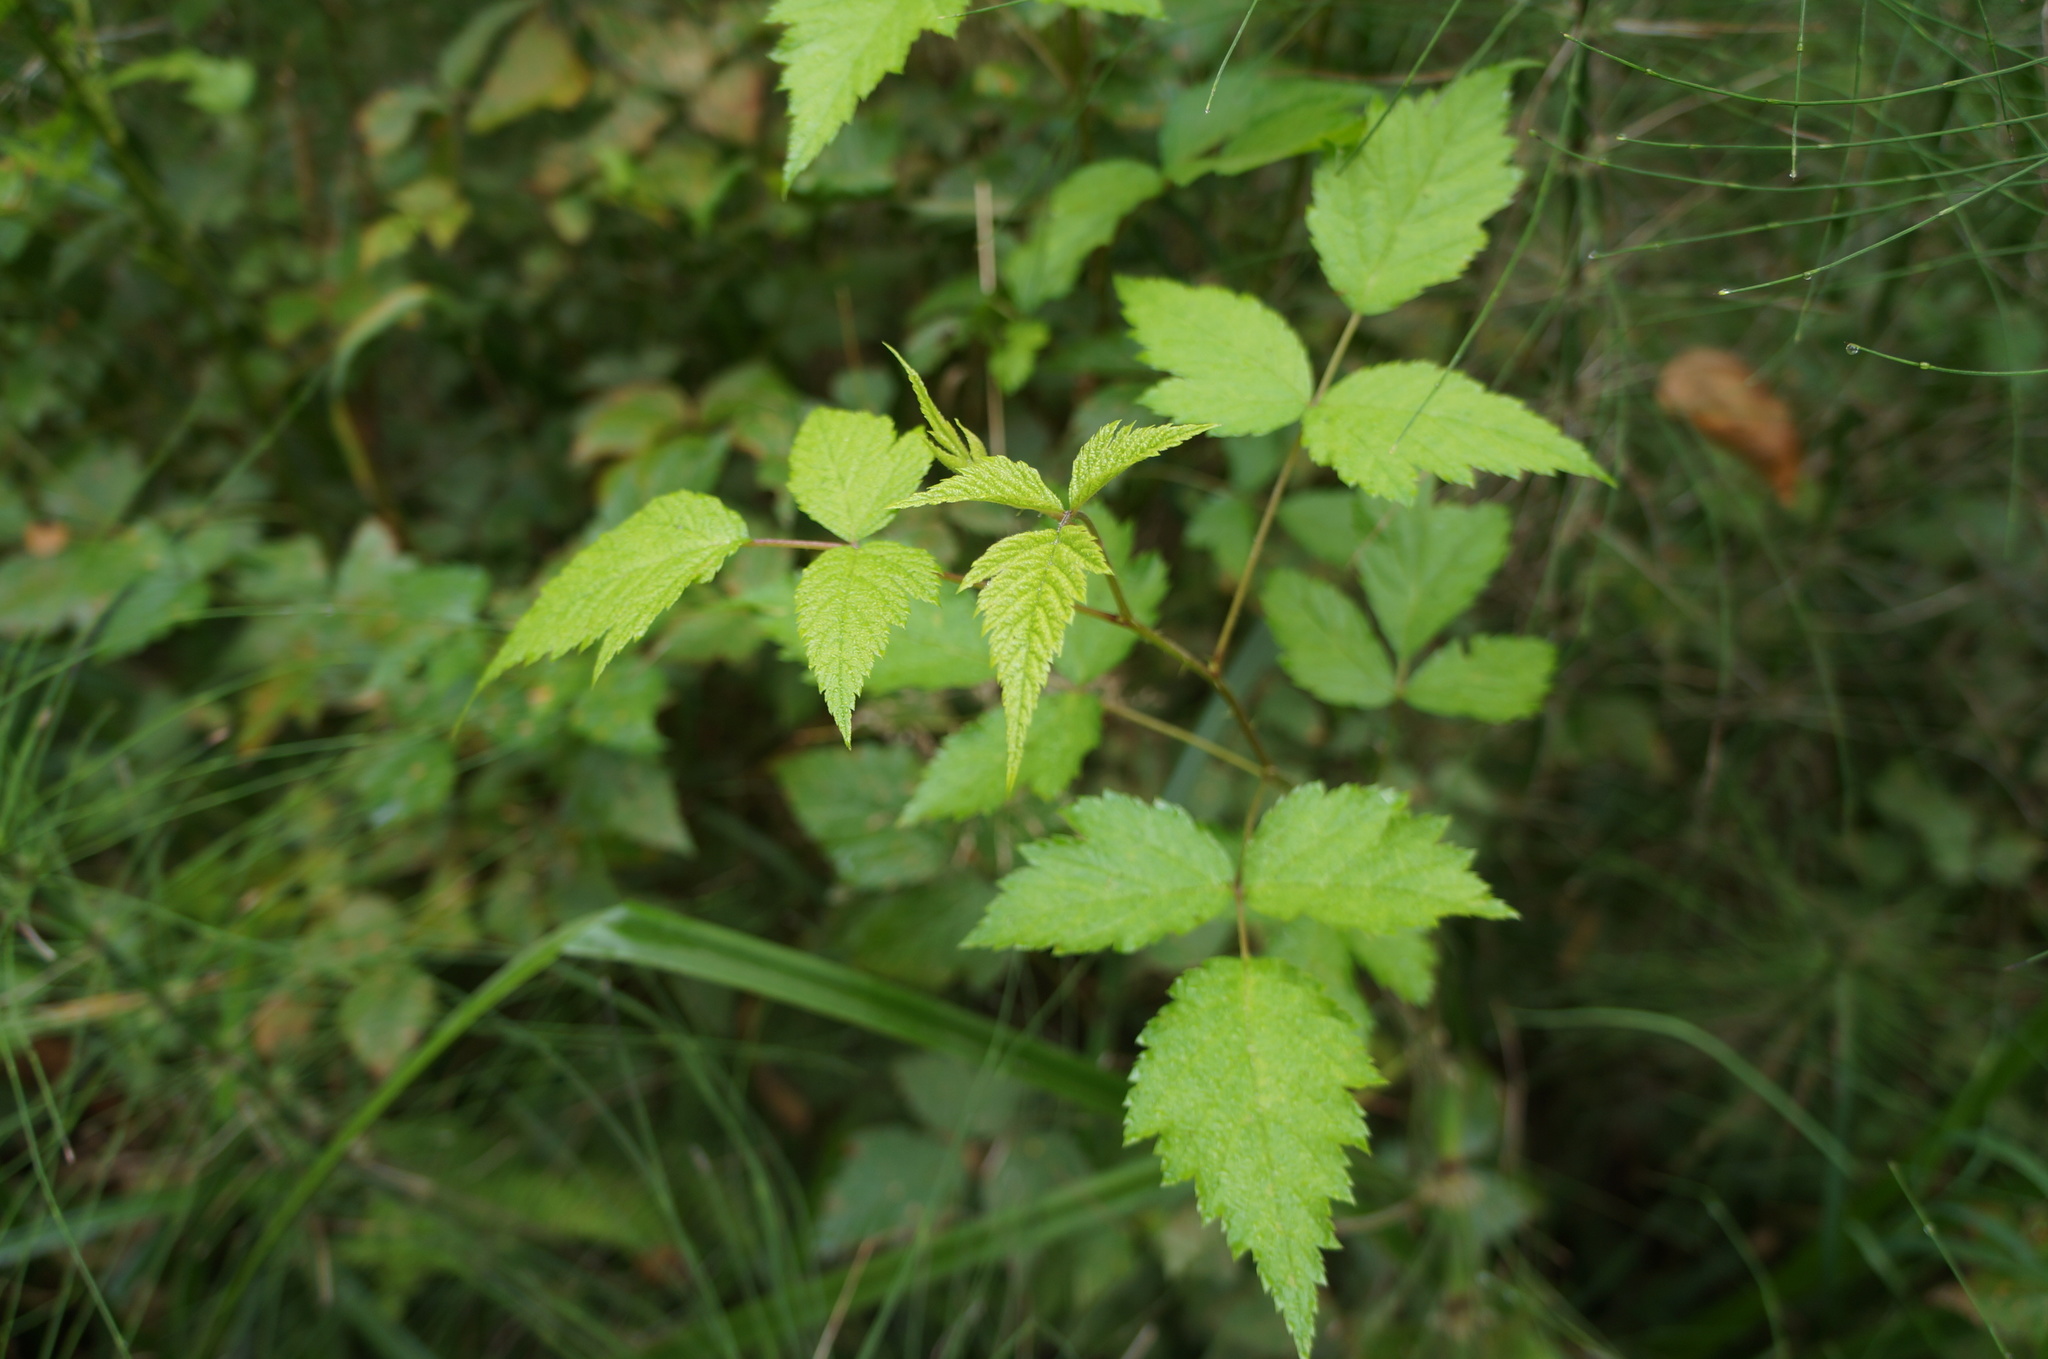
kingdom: Plantae
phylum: Tracheophyta
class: Magnoliopsida
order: Rosales
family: Rosaceae
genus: Rubus
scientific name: Rubus spectabilis
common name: Salmonberry
